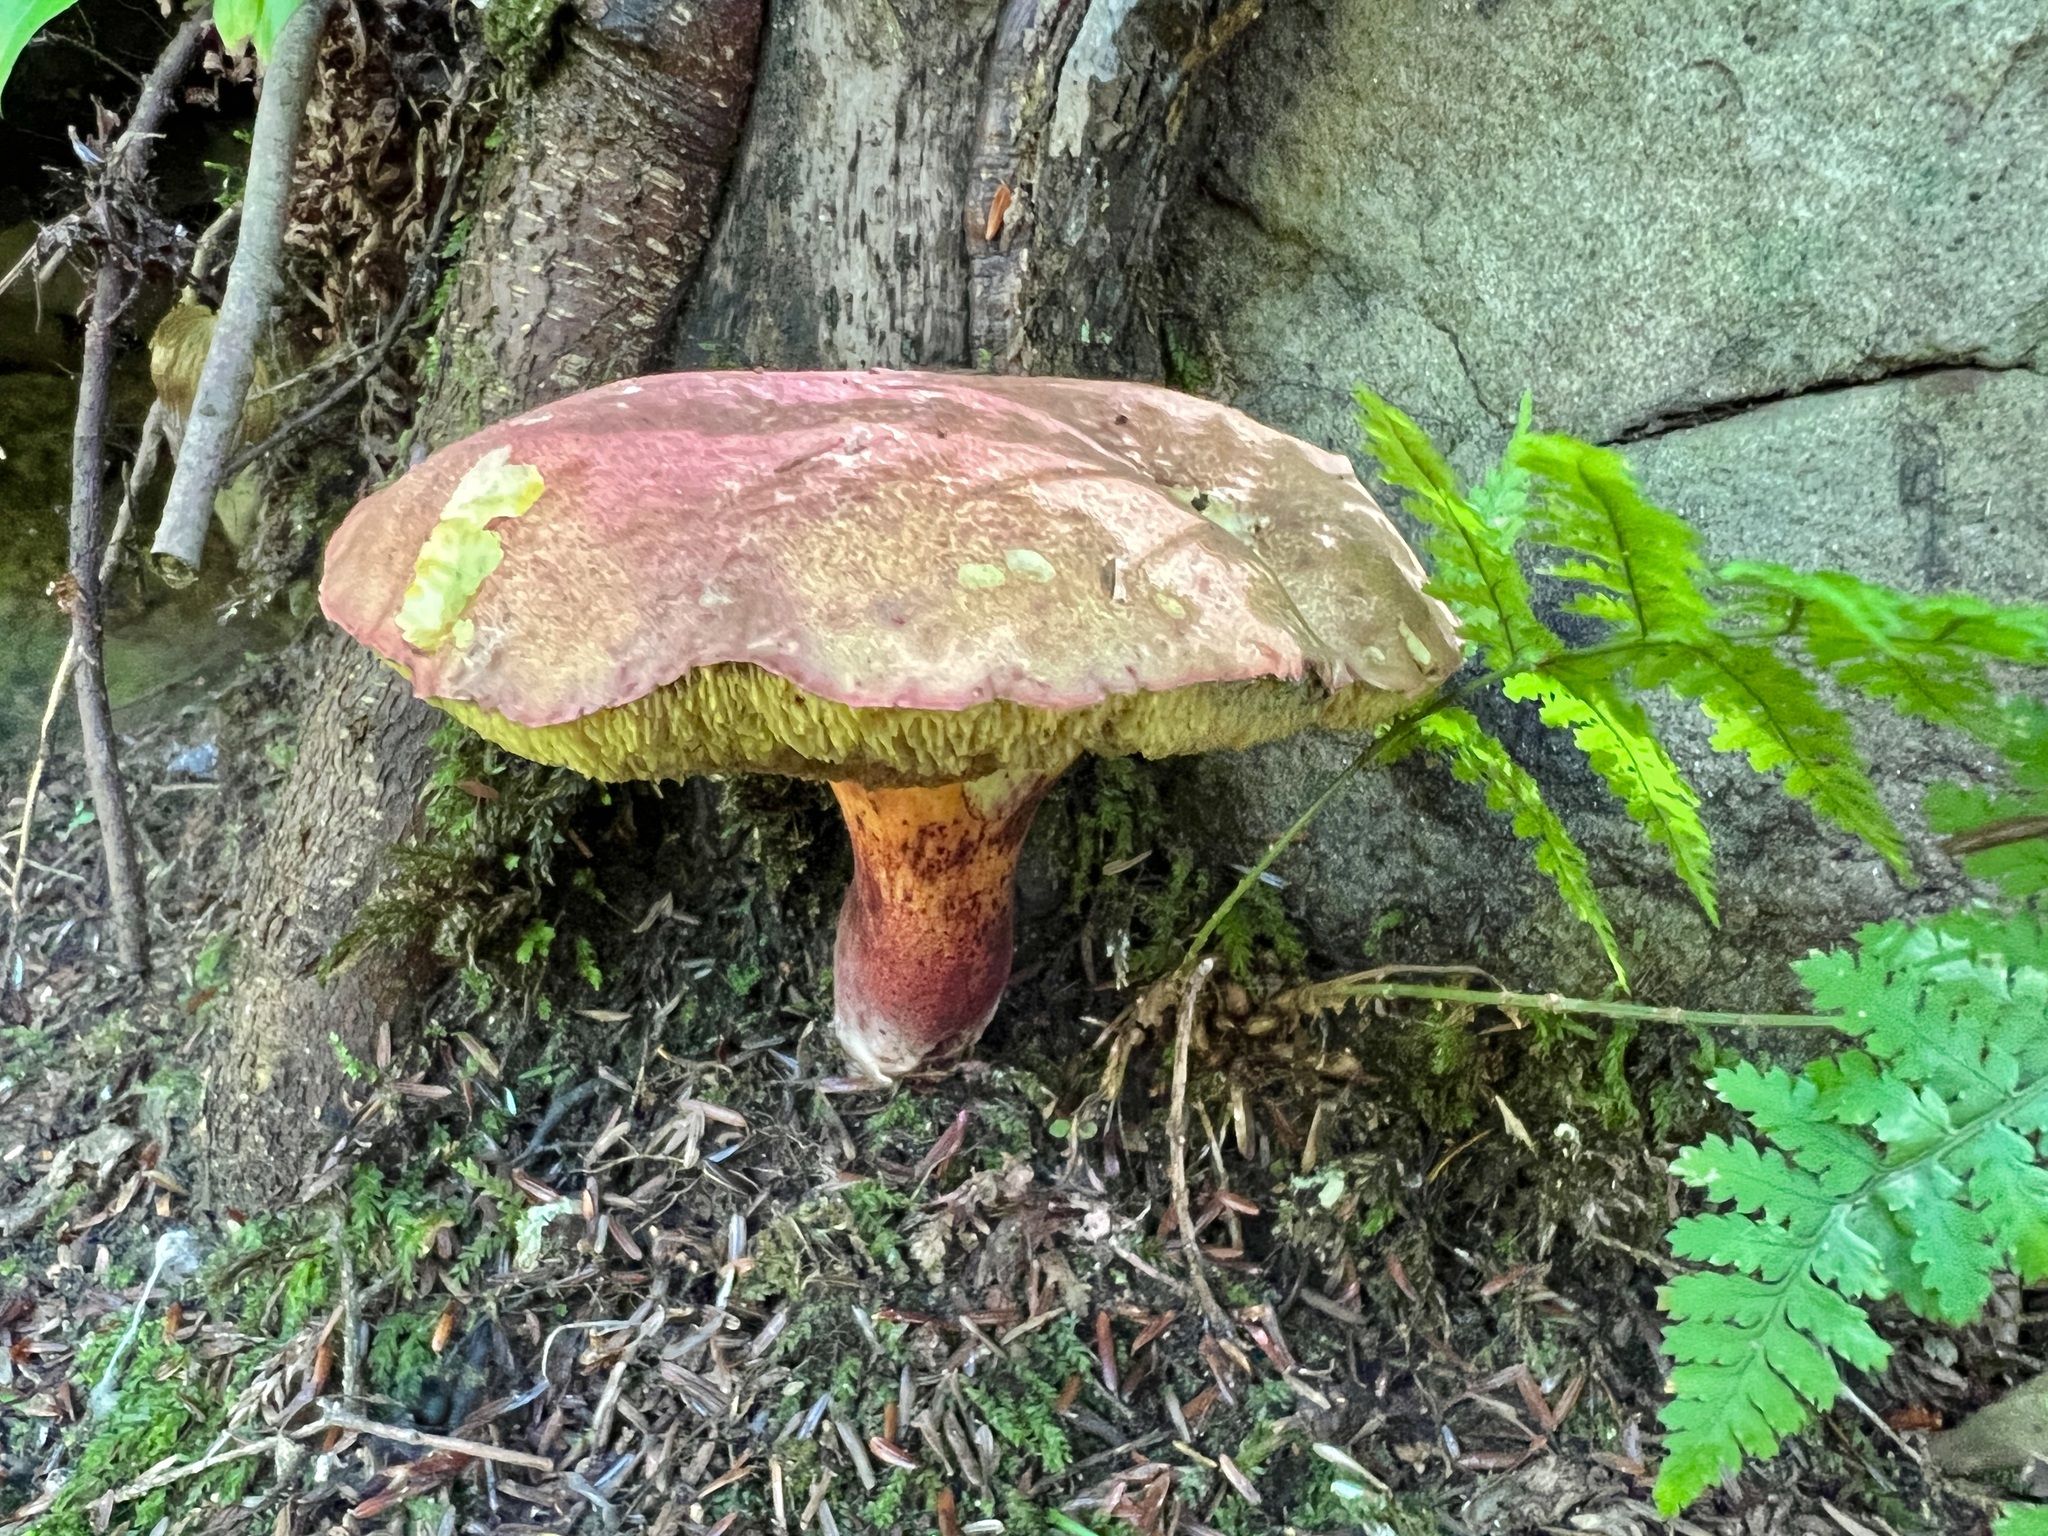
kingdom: Fungi
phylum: Basidiomycota
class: Agaricomycetes
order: Boletales
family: Boletaceae
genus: Baorangia
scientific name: Baorangia bicolor
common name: Two-colored bolete
